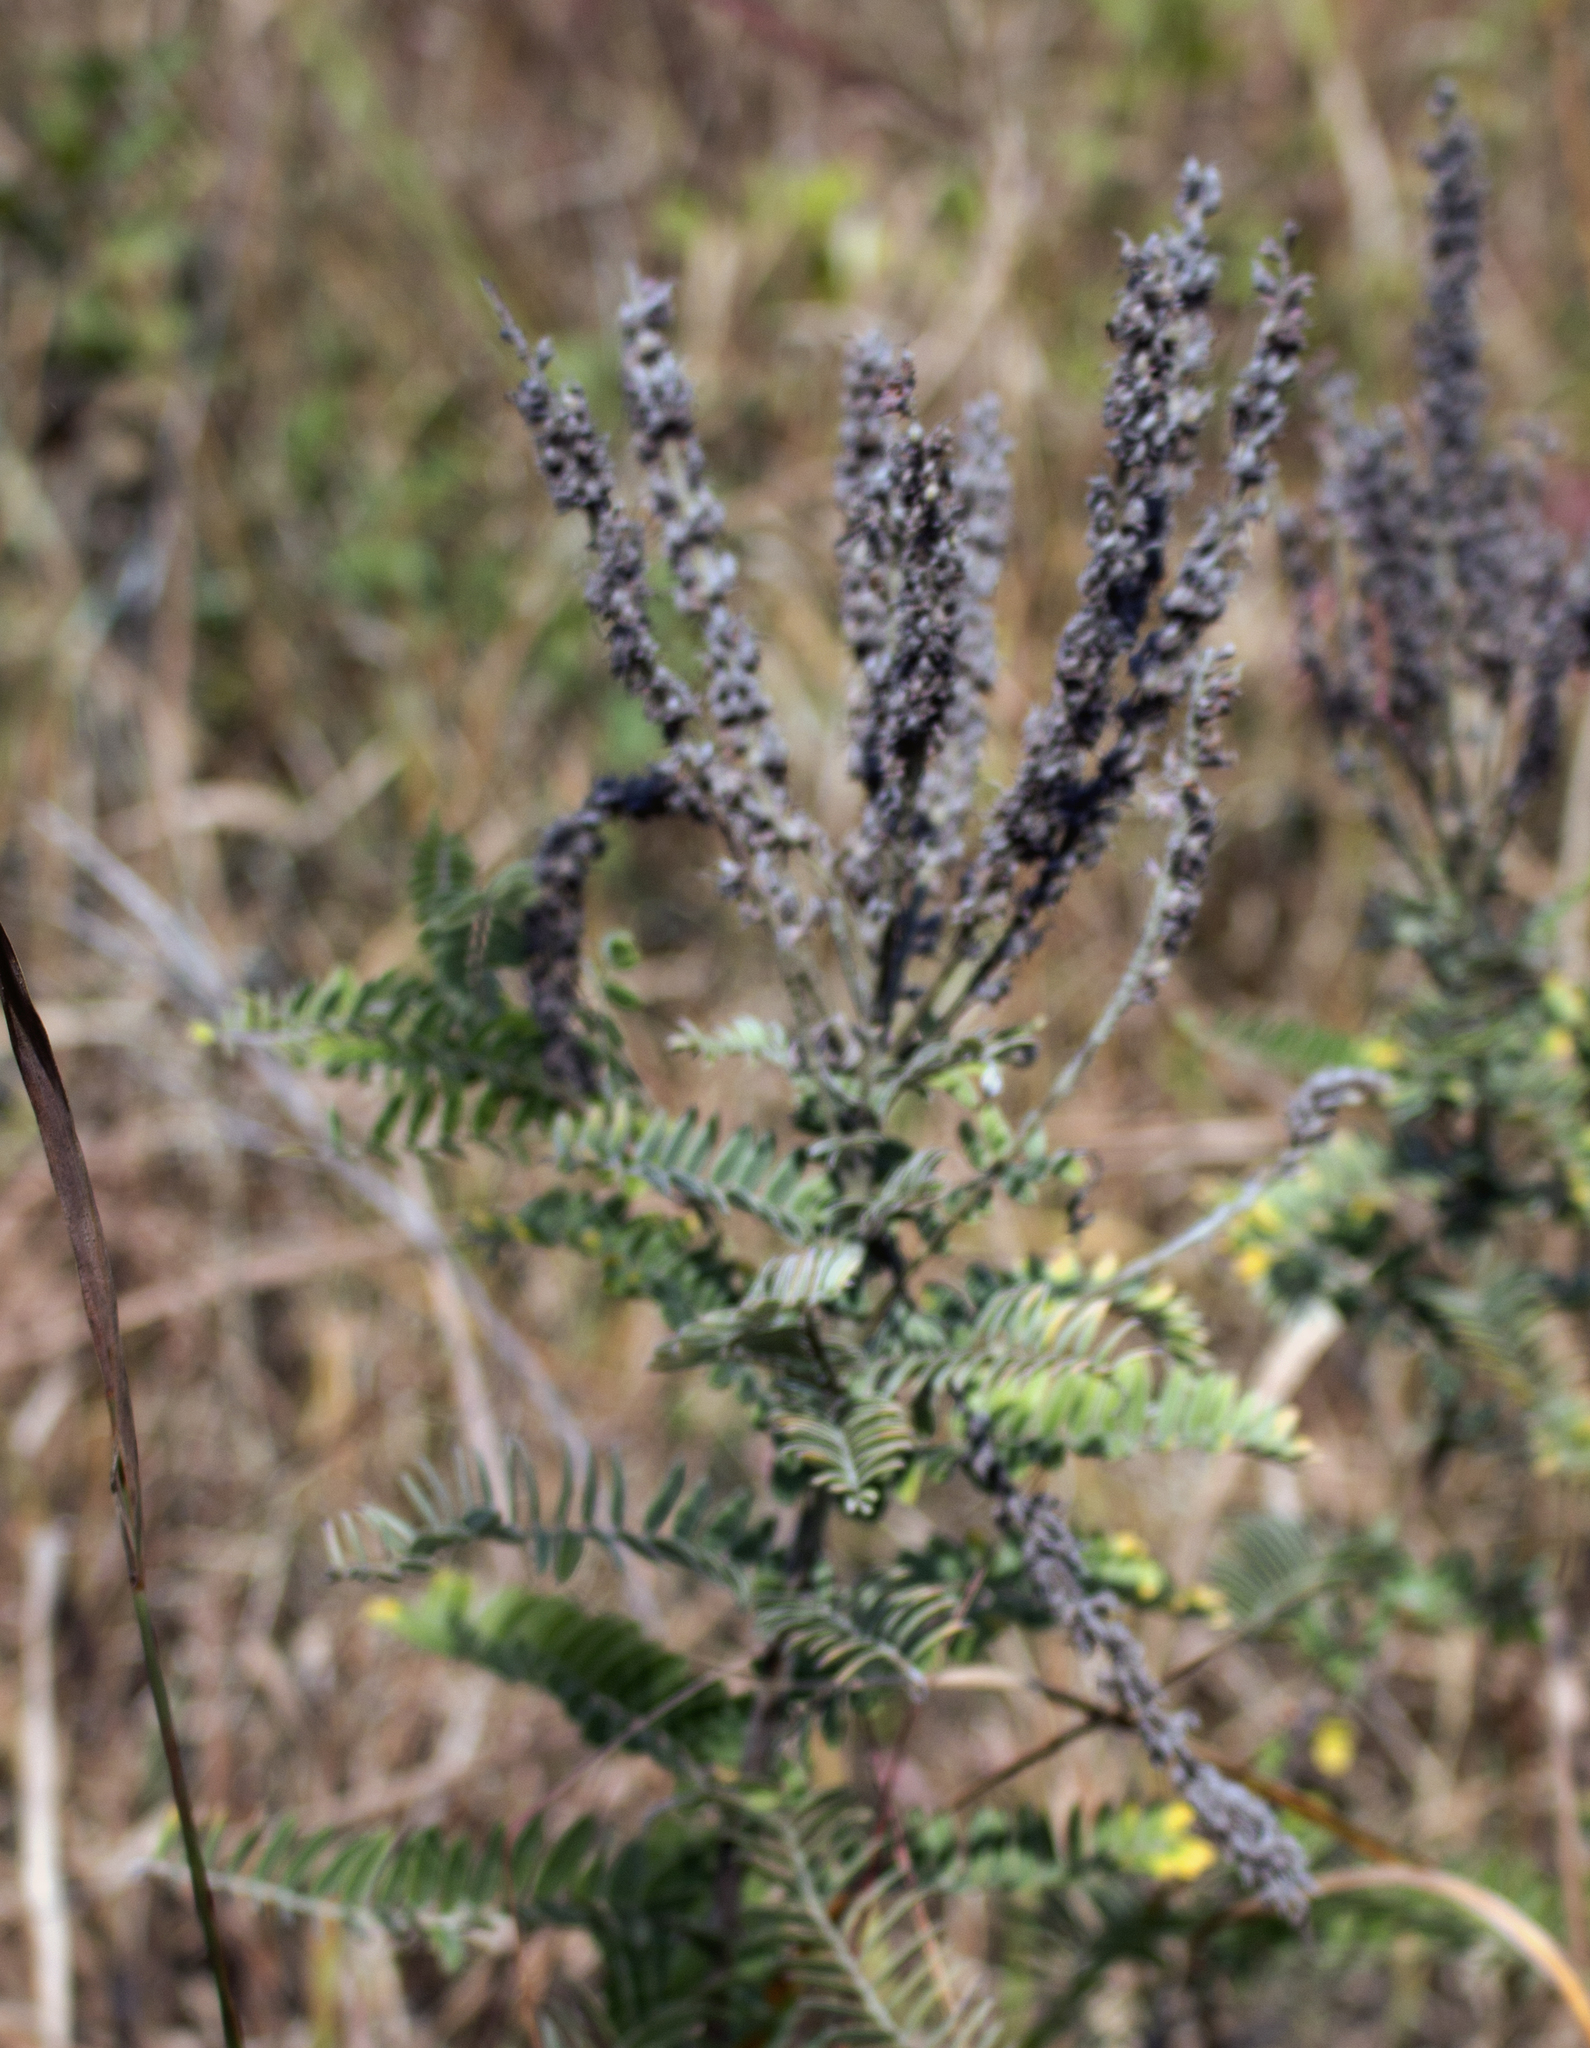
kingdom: Plantae
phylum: Tracheophyta
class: Magnoliopsida
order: Fabales
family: Fabaceae
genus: Amorpha
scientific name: Amorpha canescens
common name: Leadplant
